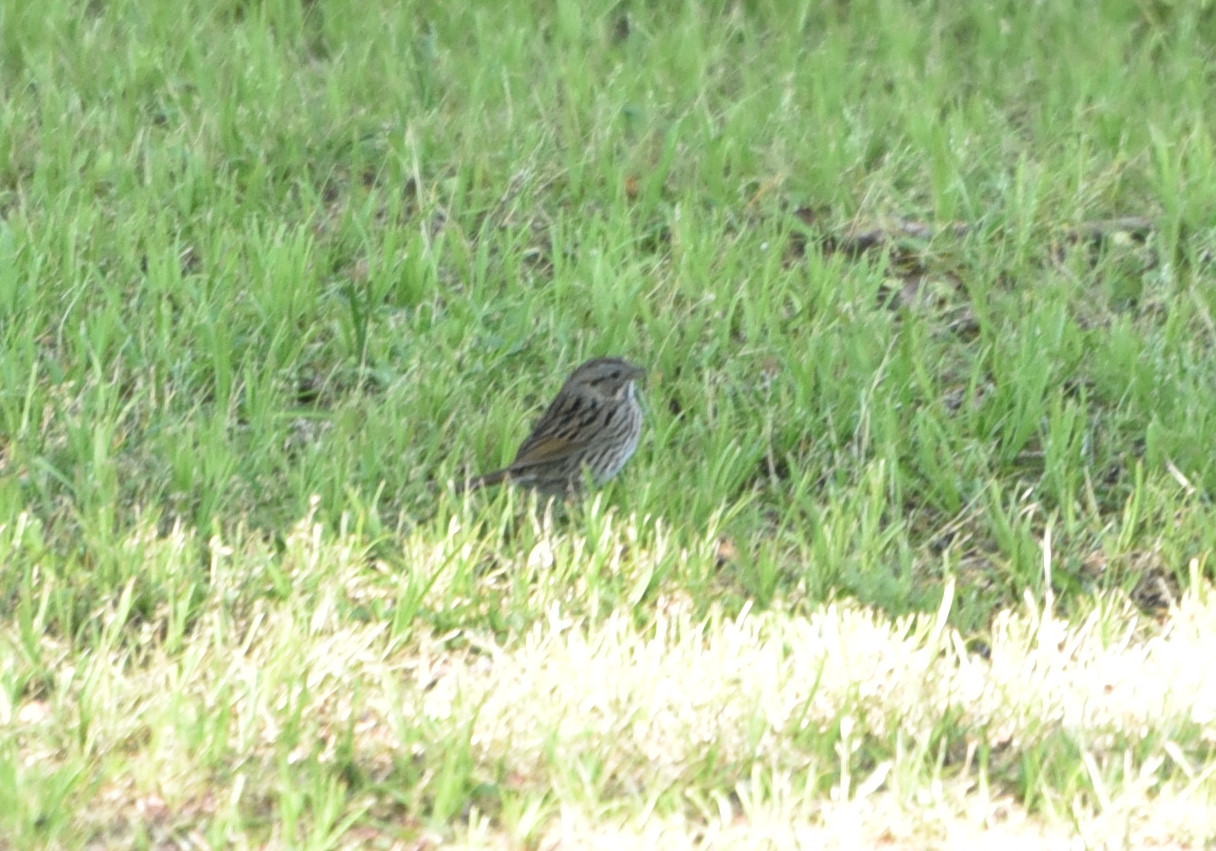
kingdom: Animalia
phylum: Chordata
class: Aves
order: Passeriformes
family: Passerellidae
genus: Melospiza
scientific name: Melospiza lincolnii
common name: Lincoln's sparrow
